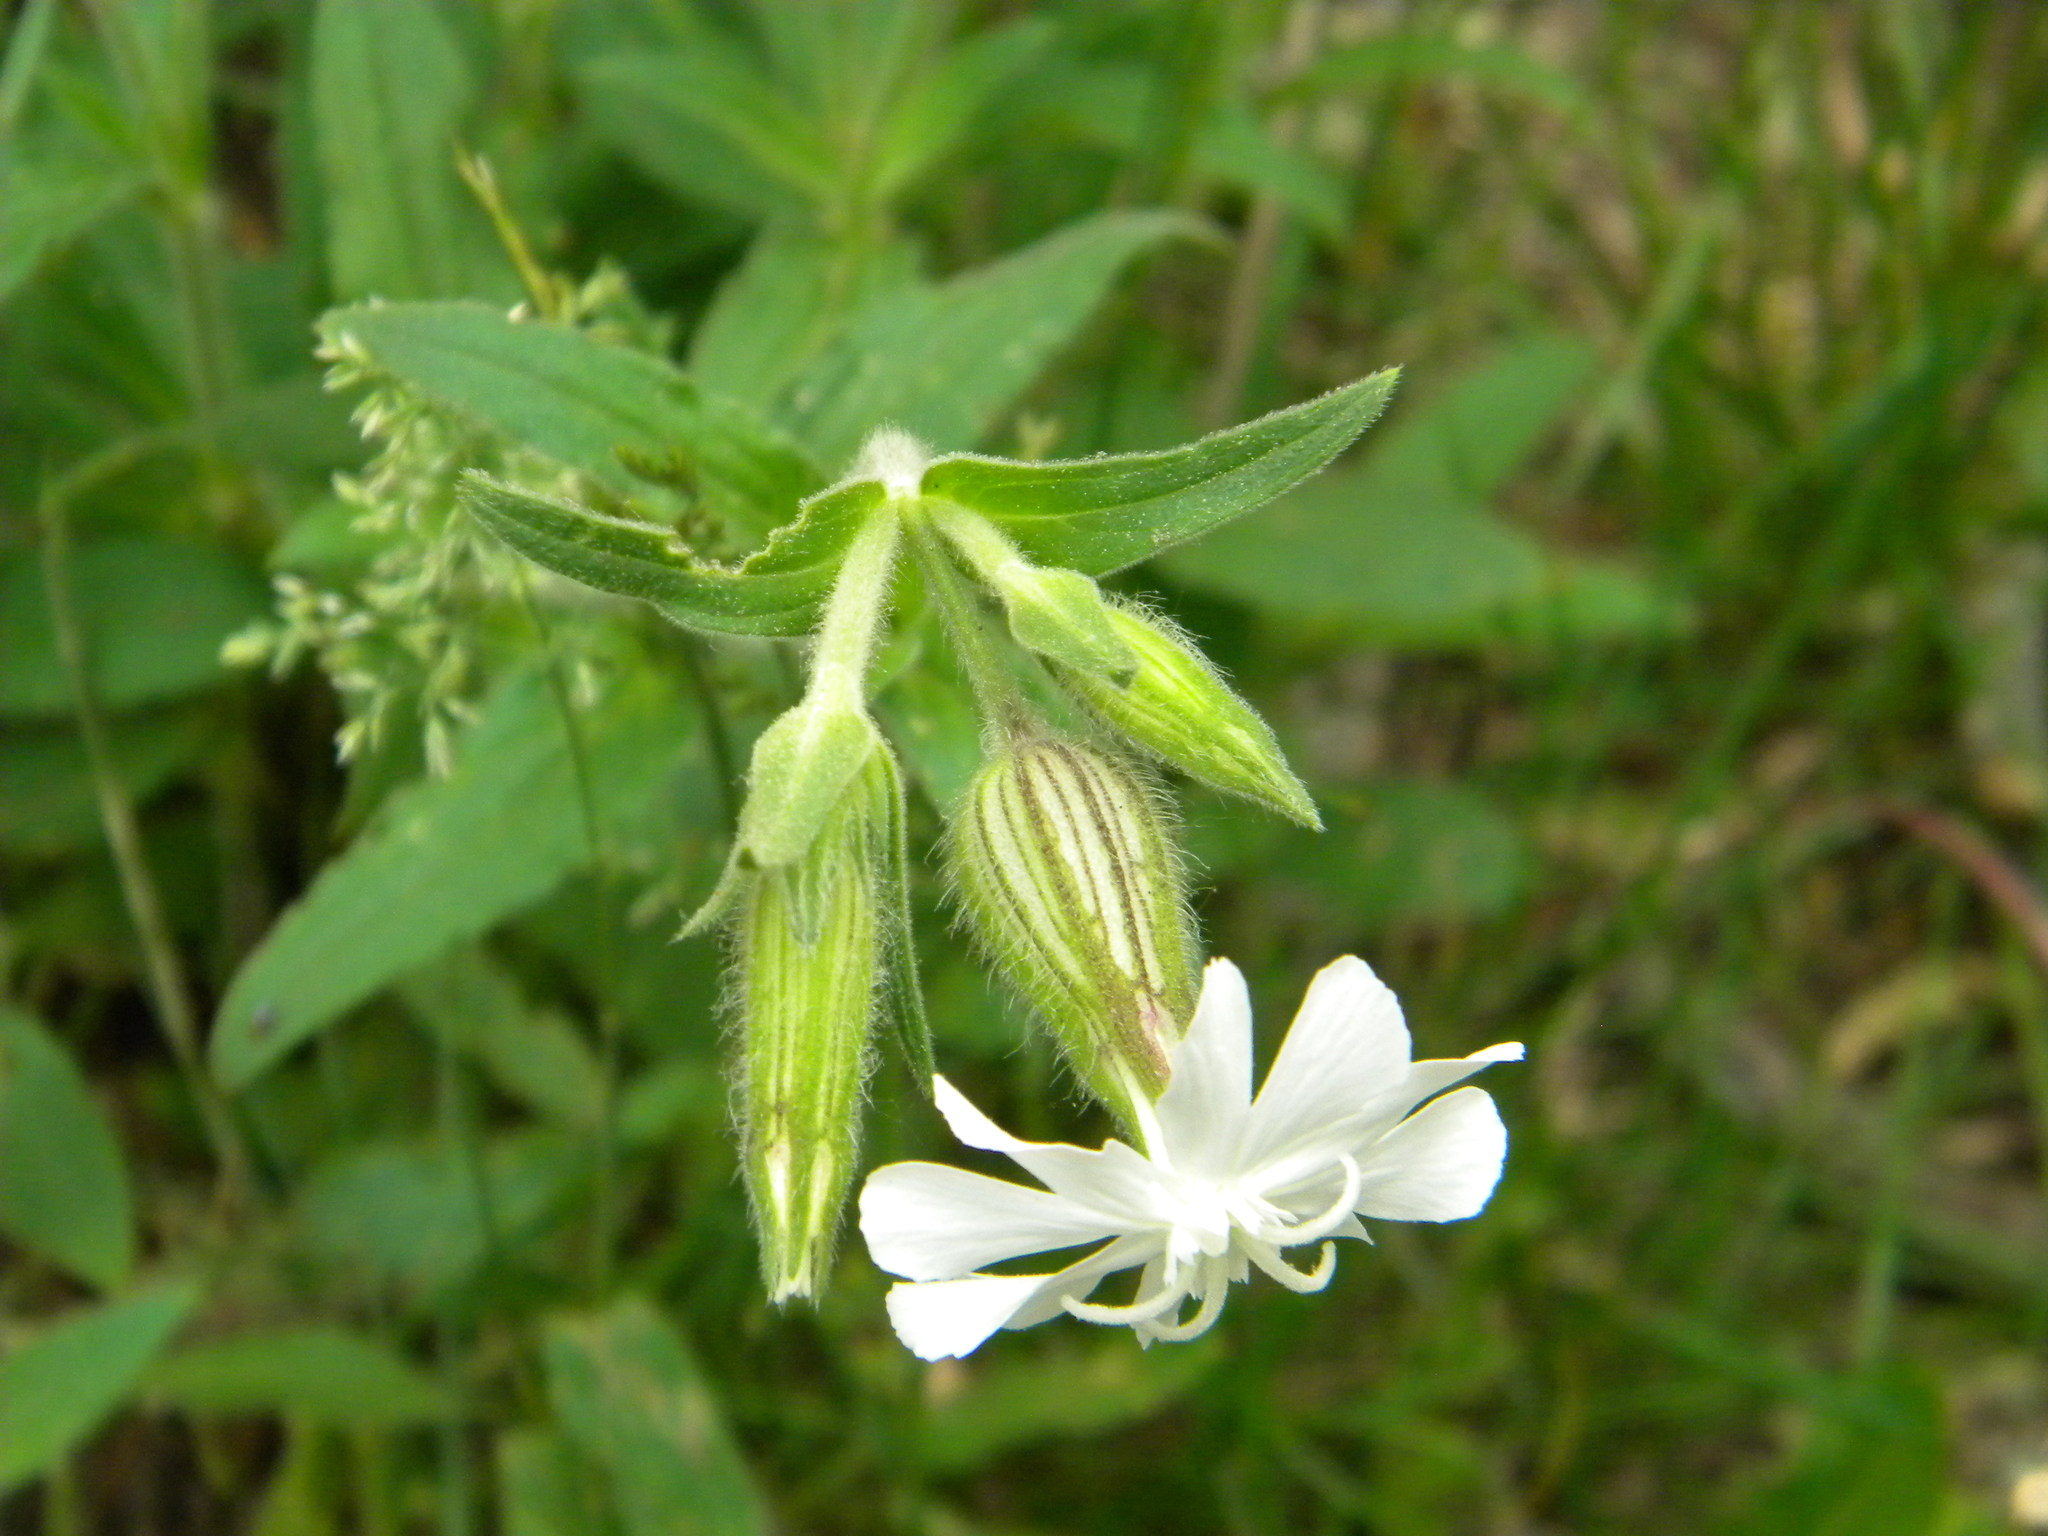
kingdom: Plantae
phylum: Tracheophyta
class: Magnoliopsida
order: Caryophyllales
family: Caryophyllaceae
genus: Silene
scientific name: Silene latifolia
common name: White campion
